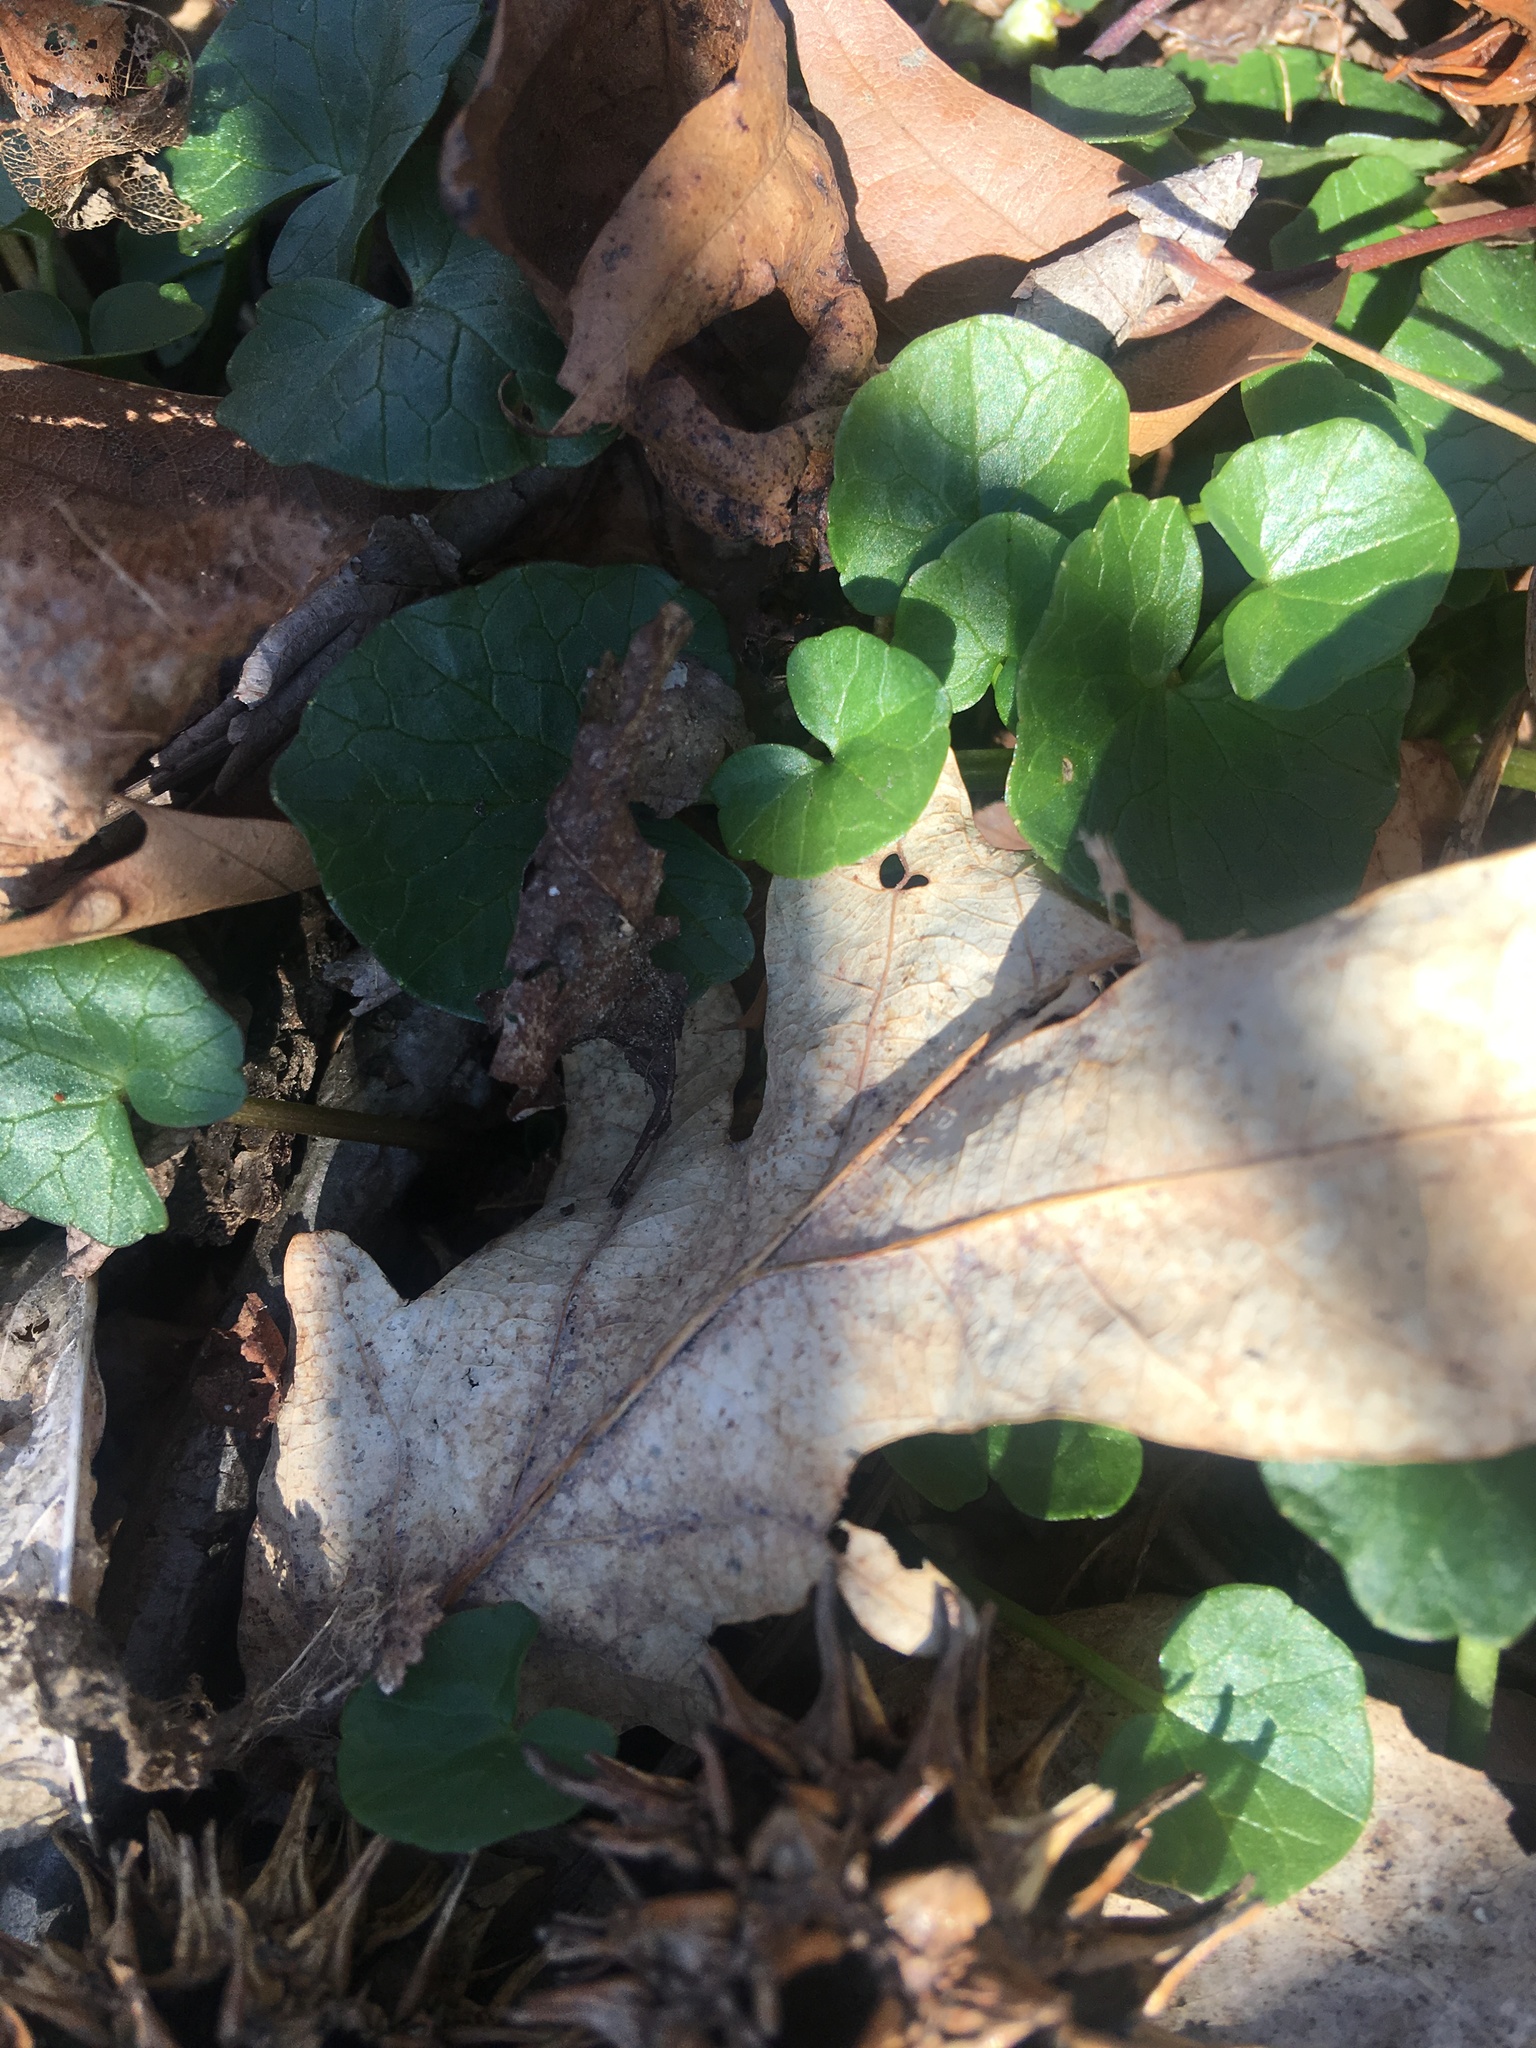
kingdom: Plantae
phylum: Tracheophyta
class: Magnoliopsida
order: Ranunculales
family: Ranunculaceae
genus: Ficaria
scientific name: Ficaria verna
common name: Lesser celandine
